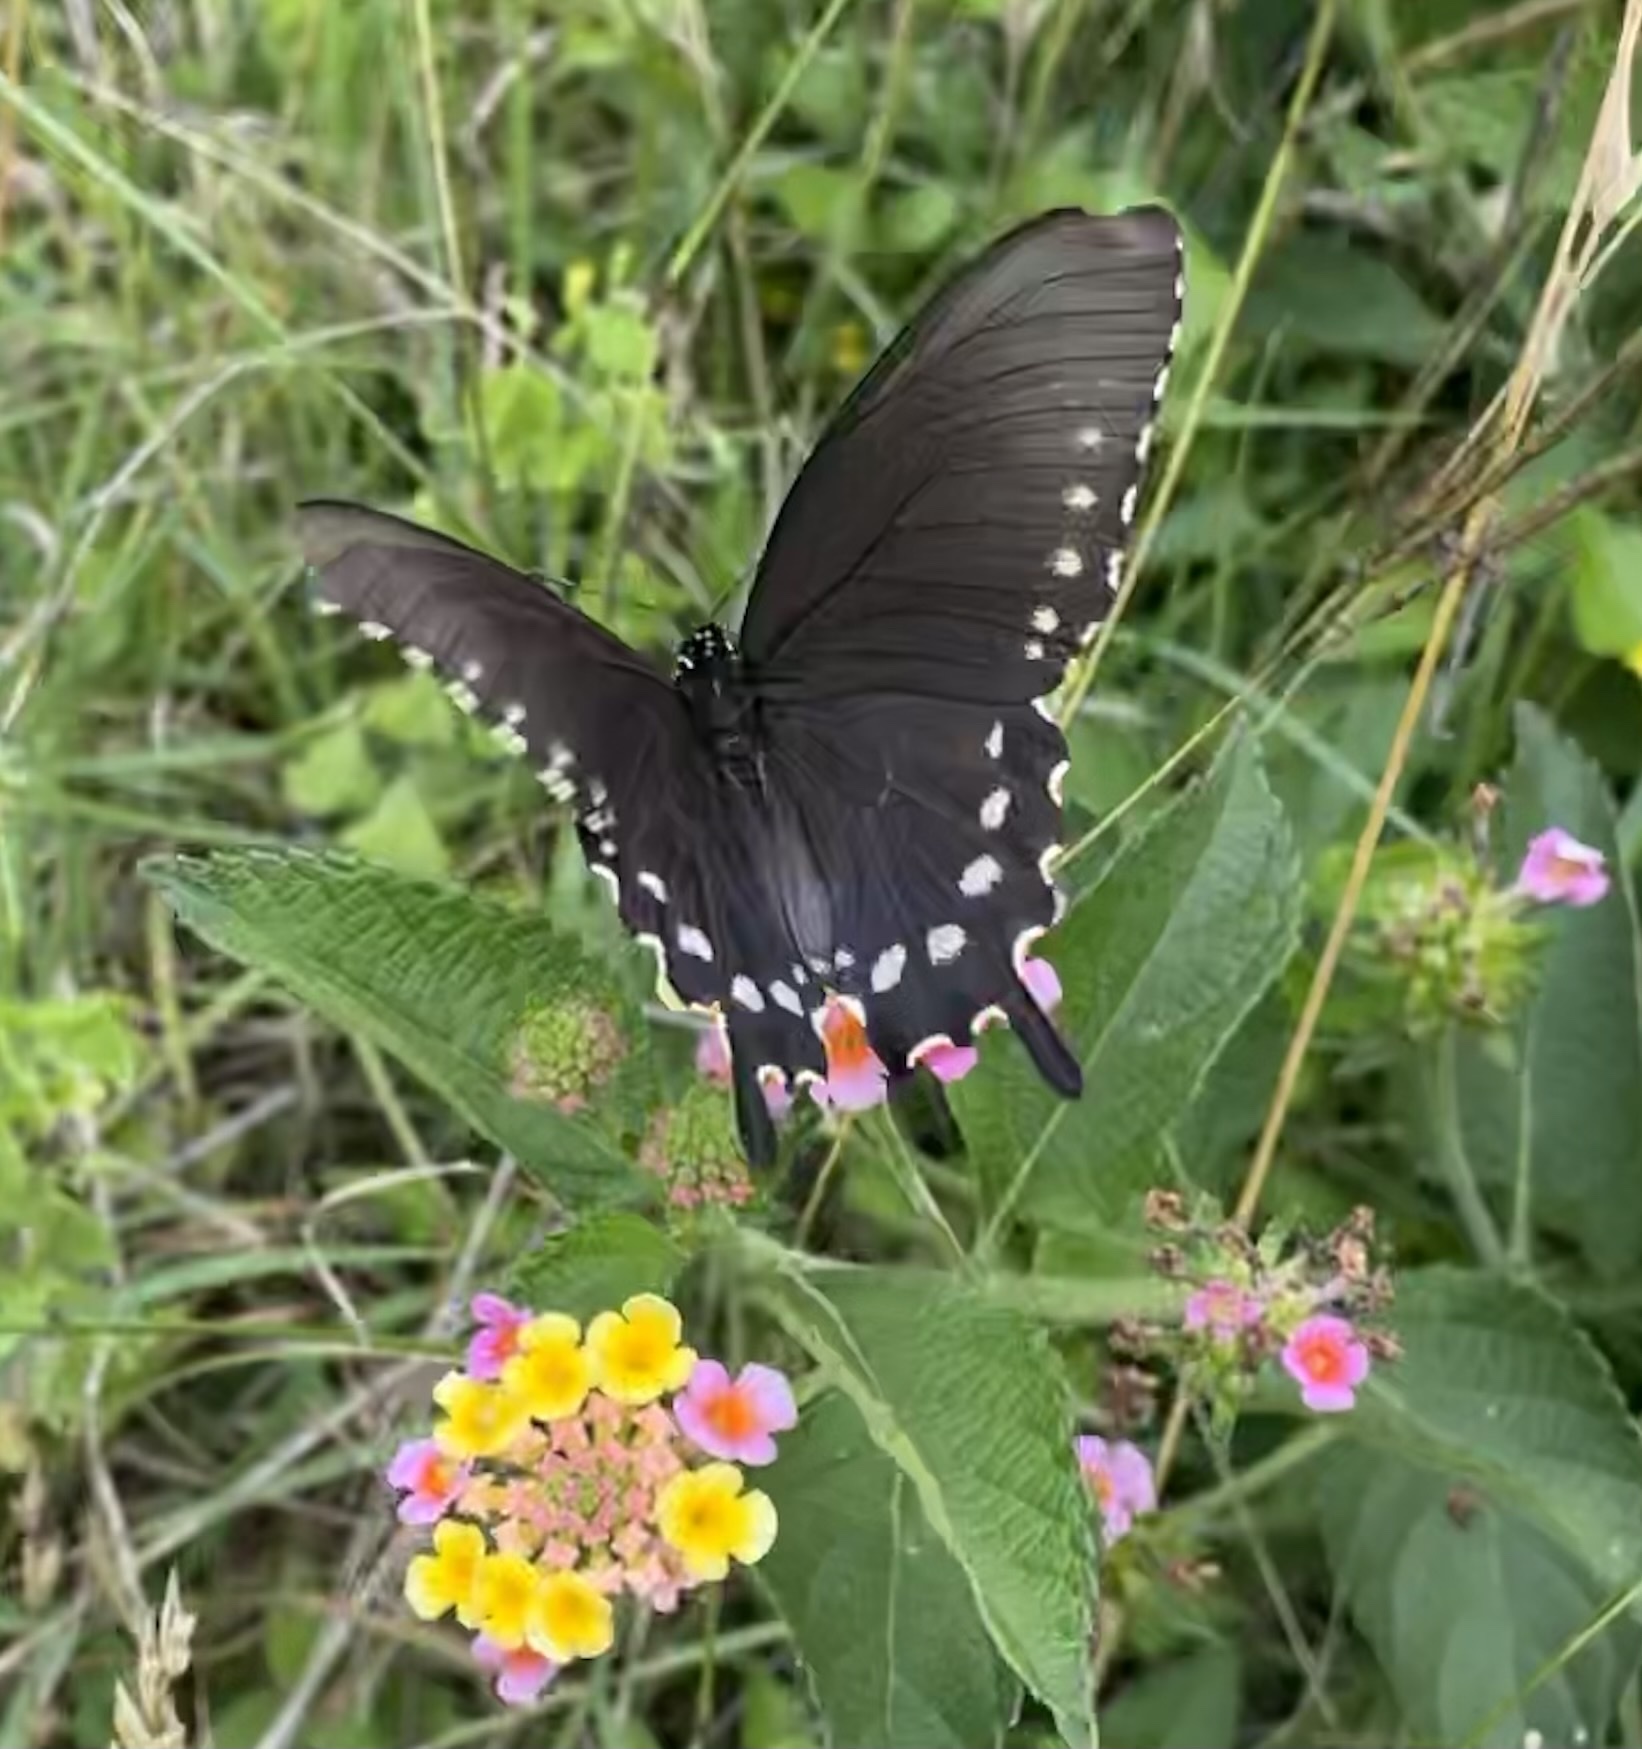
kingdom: Animalia
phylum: Arthropoda
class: Insecta
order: Lepidoptera
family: Papilionidae
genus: Battus
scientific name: Battus philenor
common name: Pipevine swallowtail
